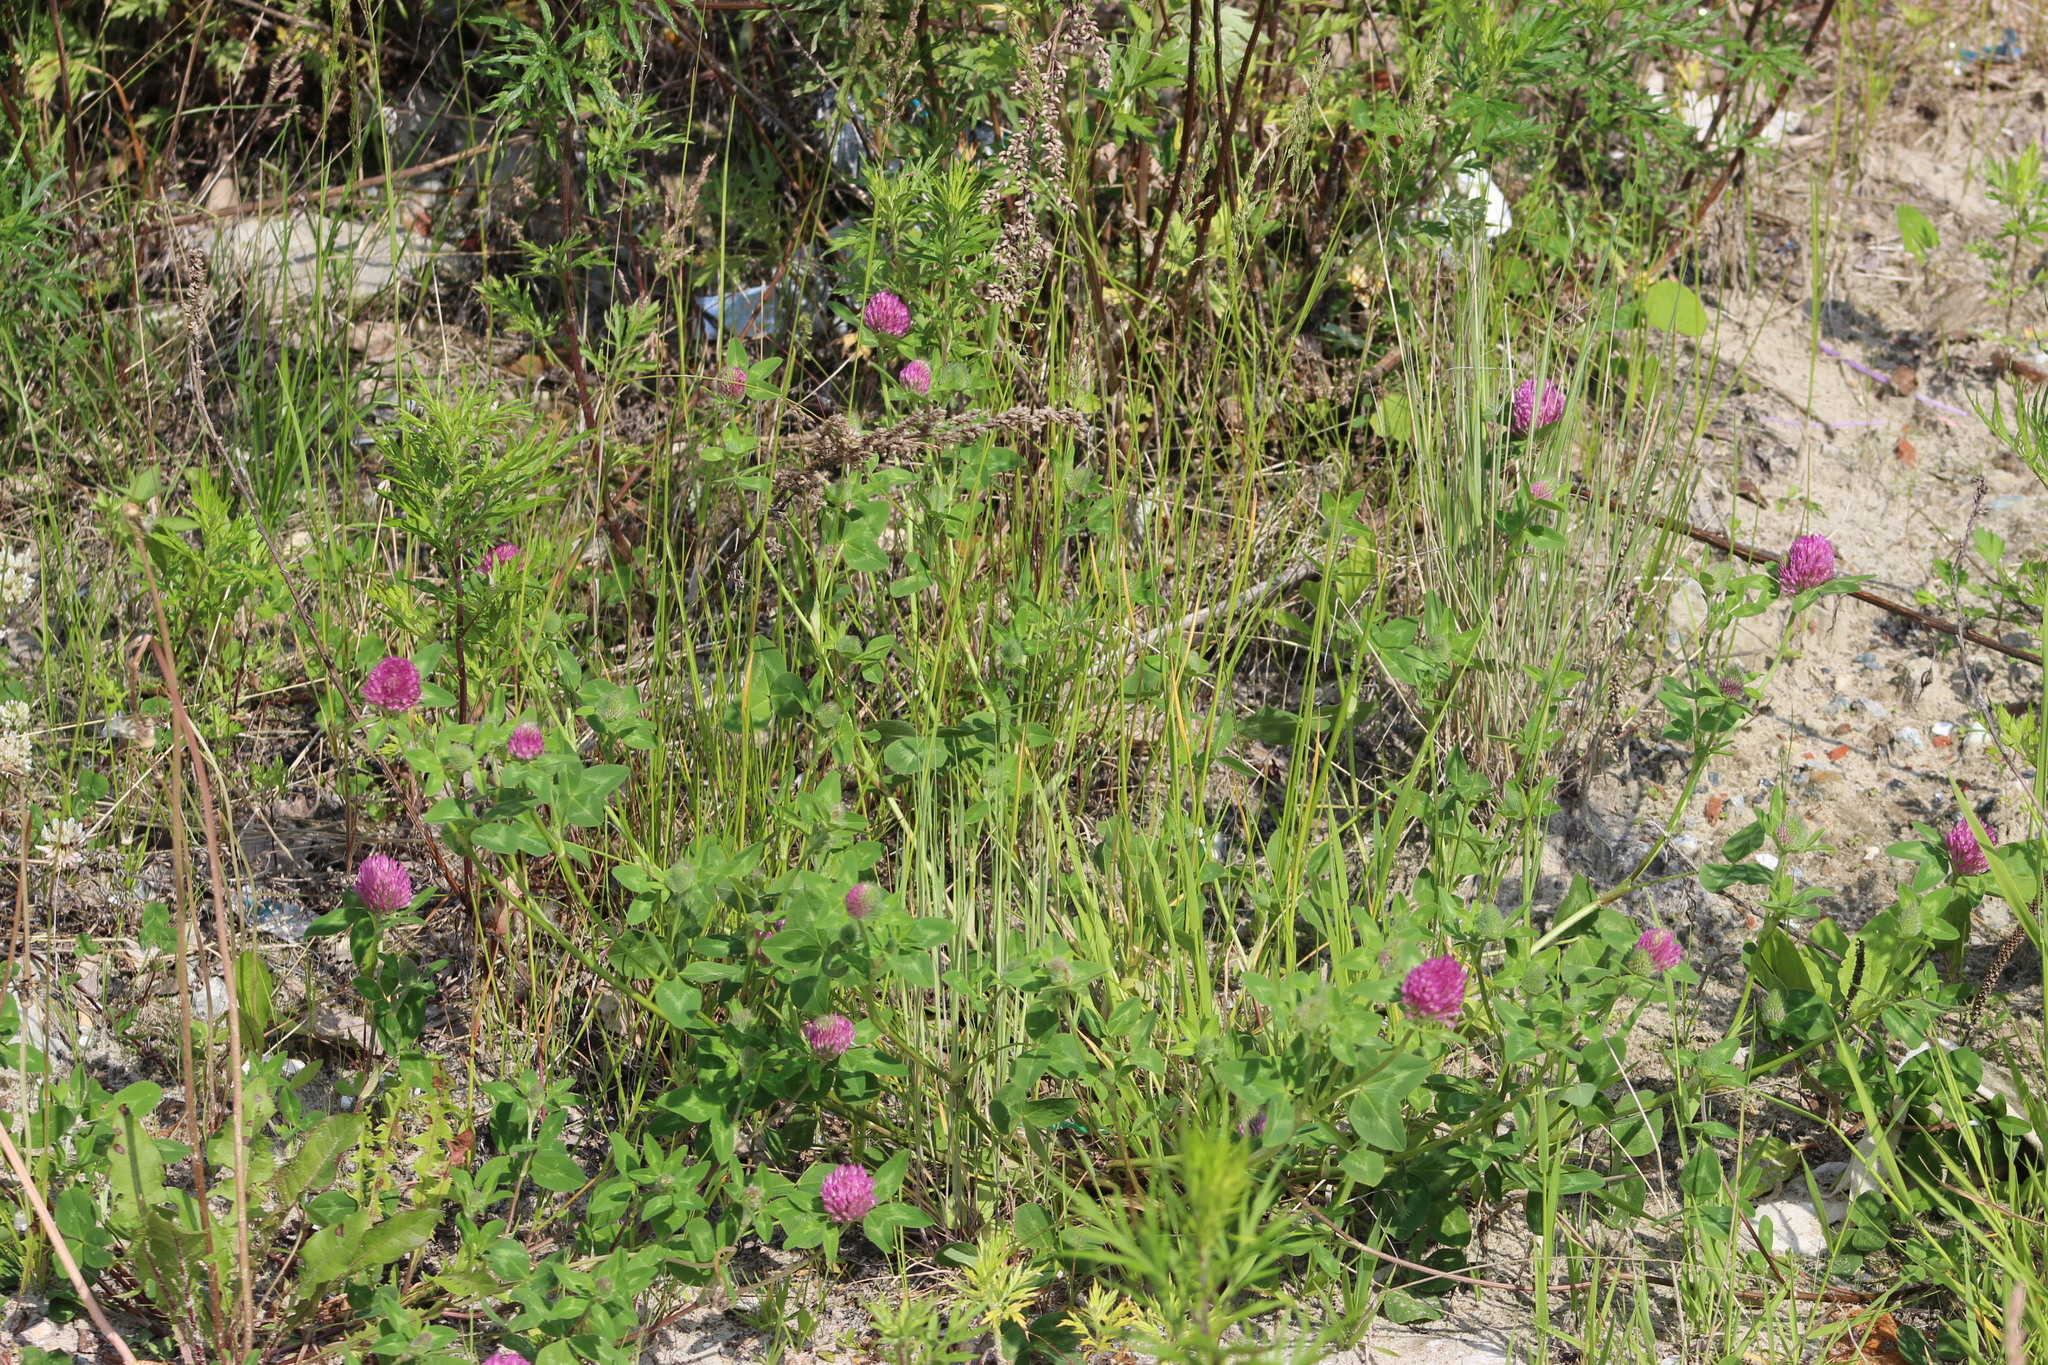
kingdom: Plantae
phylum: Tracheophyta
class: Magnoliopsida
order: Fabales
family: Fabaceae
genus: Trifolium
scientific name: Trifolium pratense
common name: Red clover
